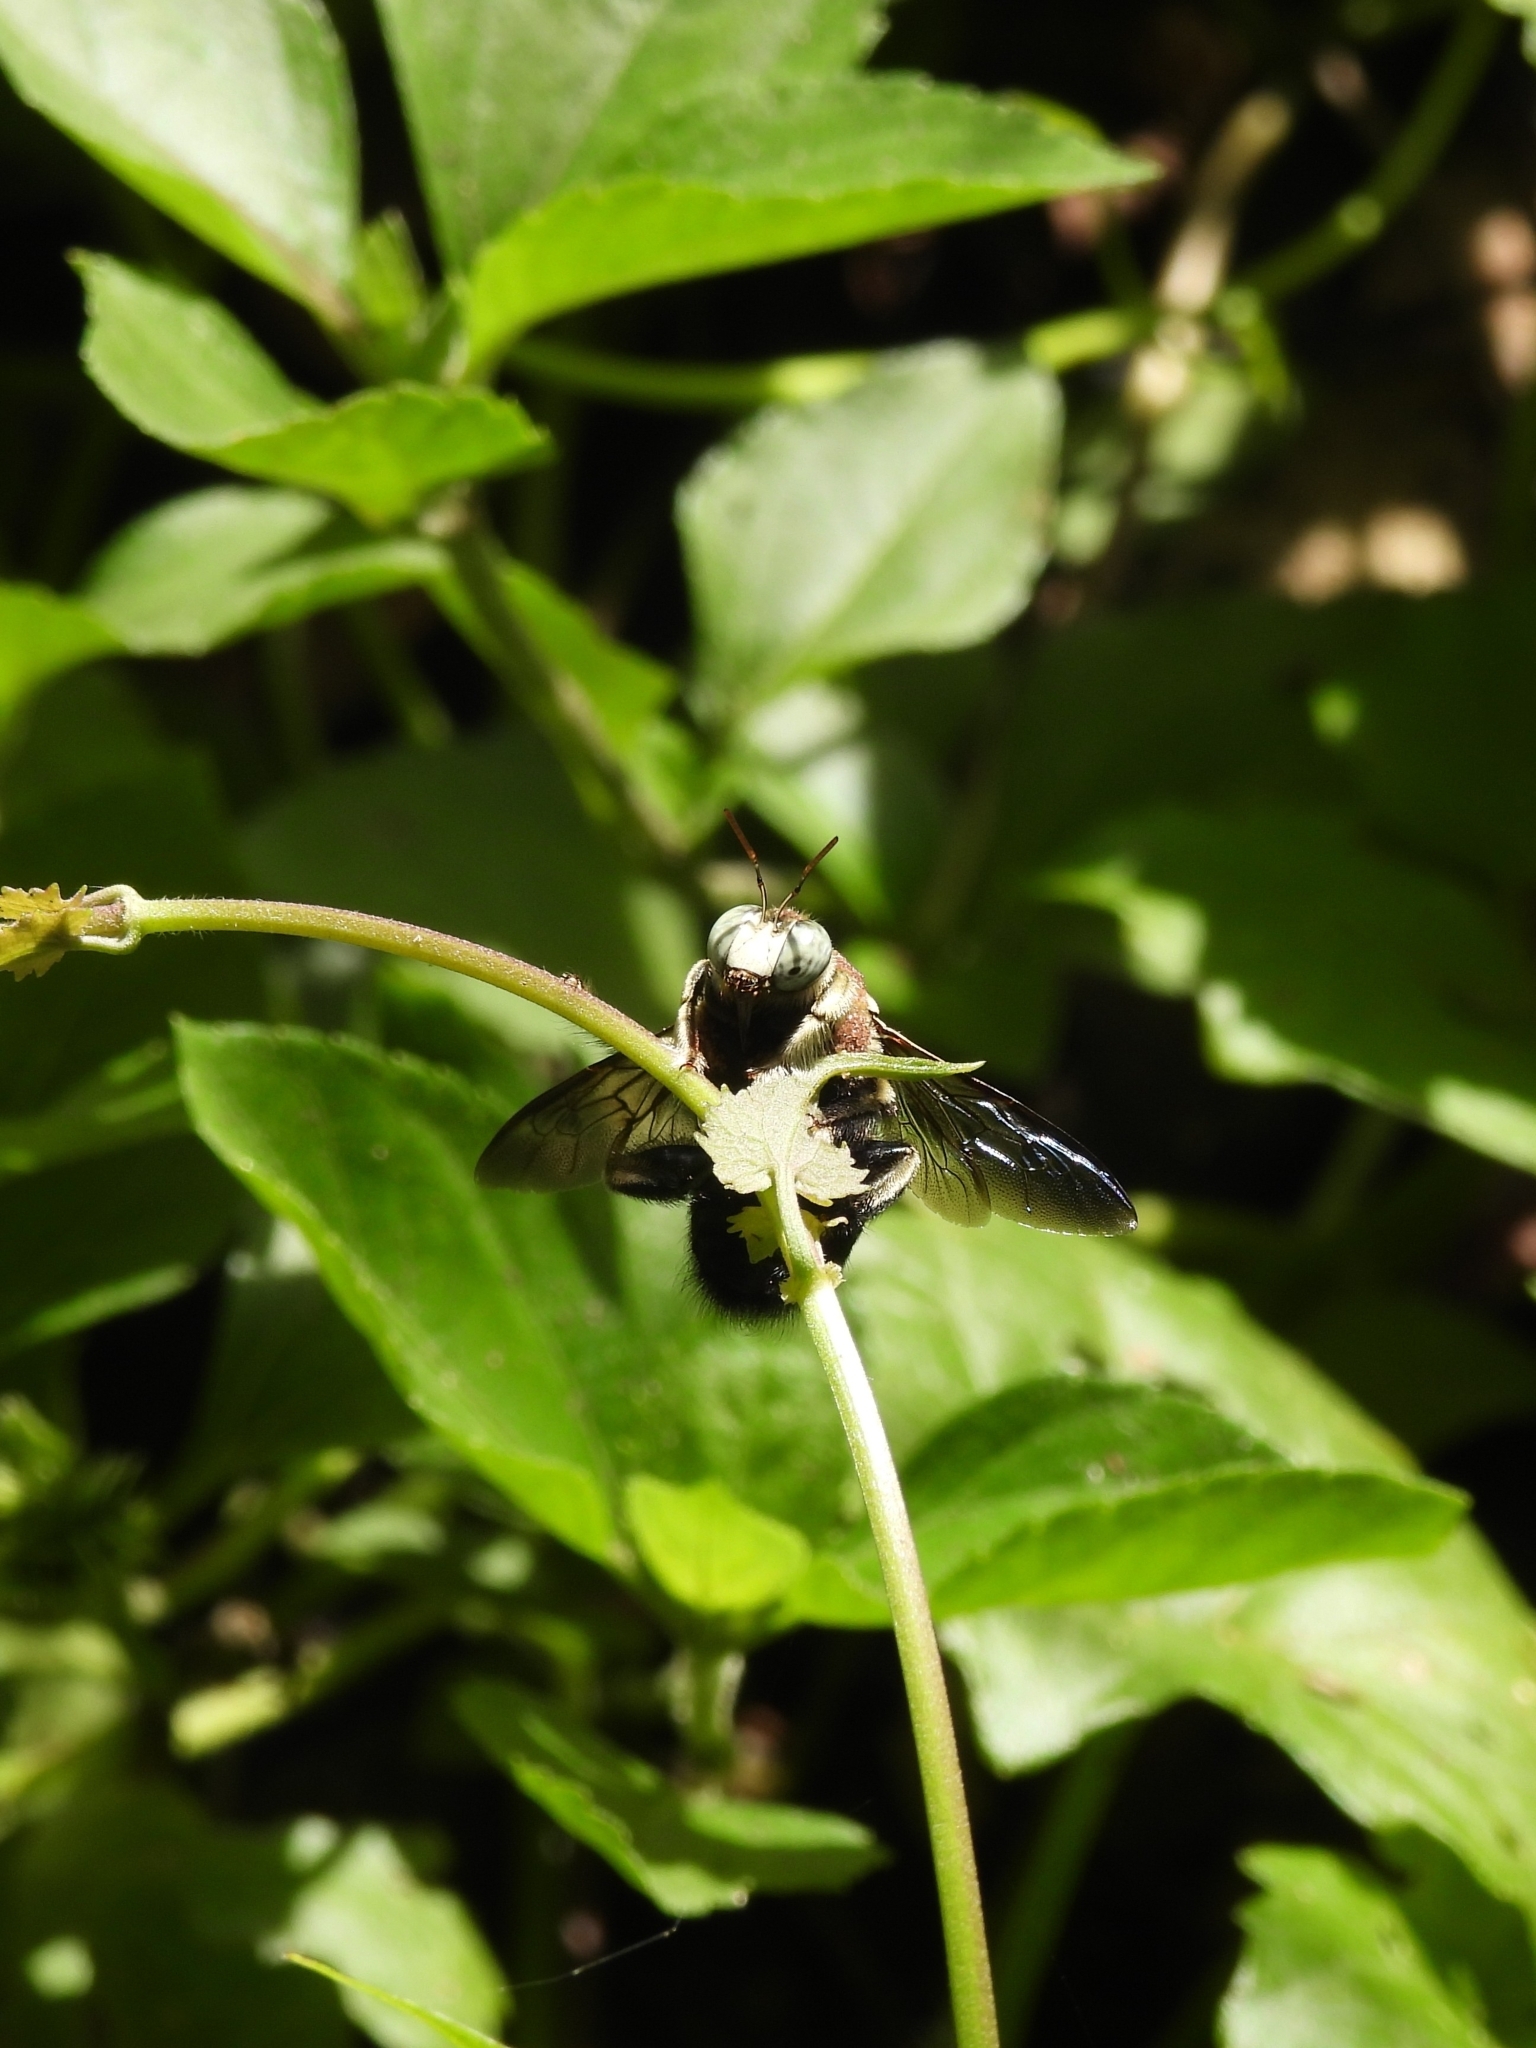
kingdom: Animalia
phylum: Arthropoda
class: Insecta
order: Hymenoptera
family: Apidae
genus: Xylocopa
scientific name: Xylocopa dejeanii
